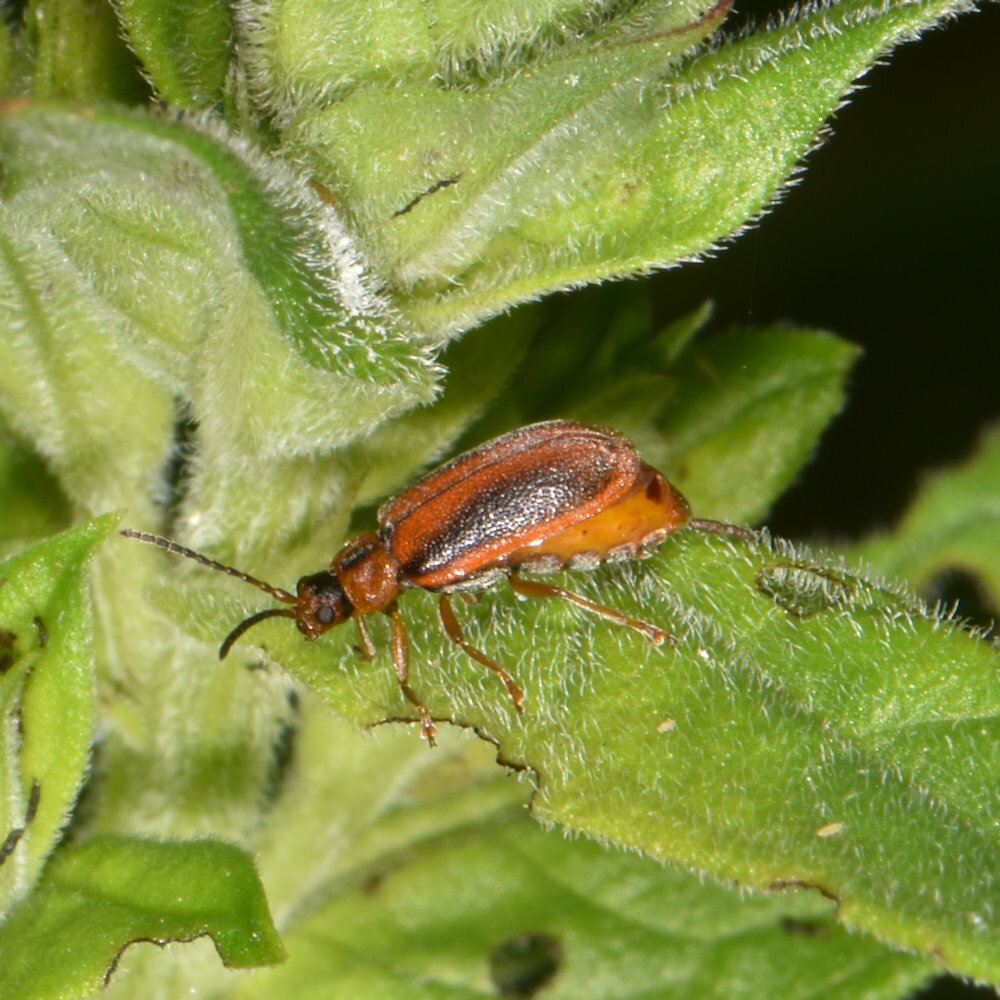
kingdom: Animalia
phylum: Arthropoda
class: Insecta
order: Coleoptera
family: Chrysomelidae
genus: Neogalerucella
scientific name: Neogalerucella calmariensis
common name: Black-margined loosestrife beetle
